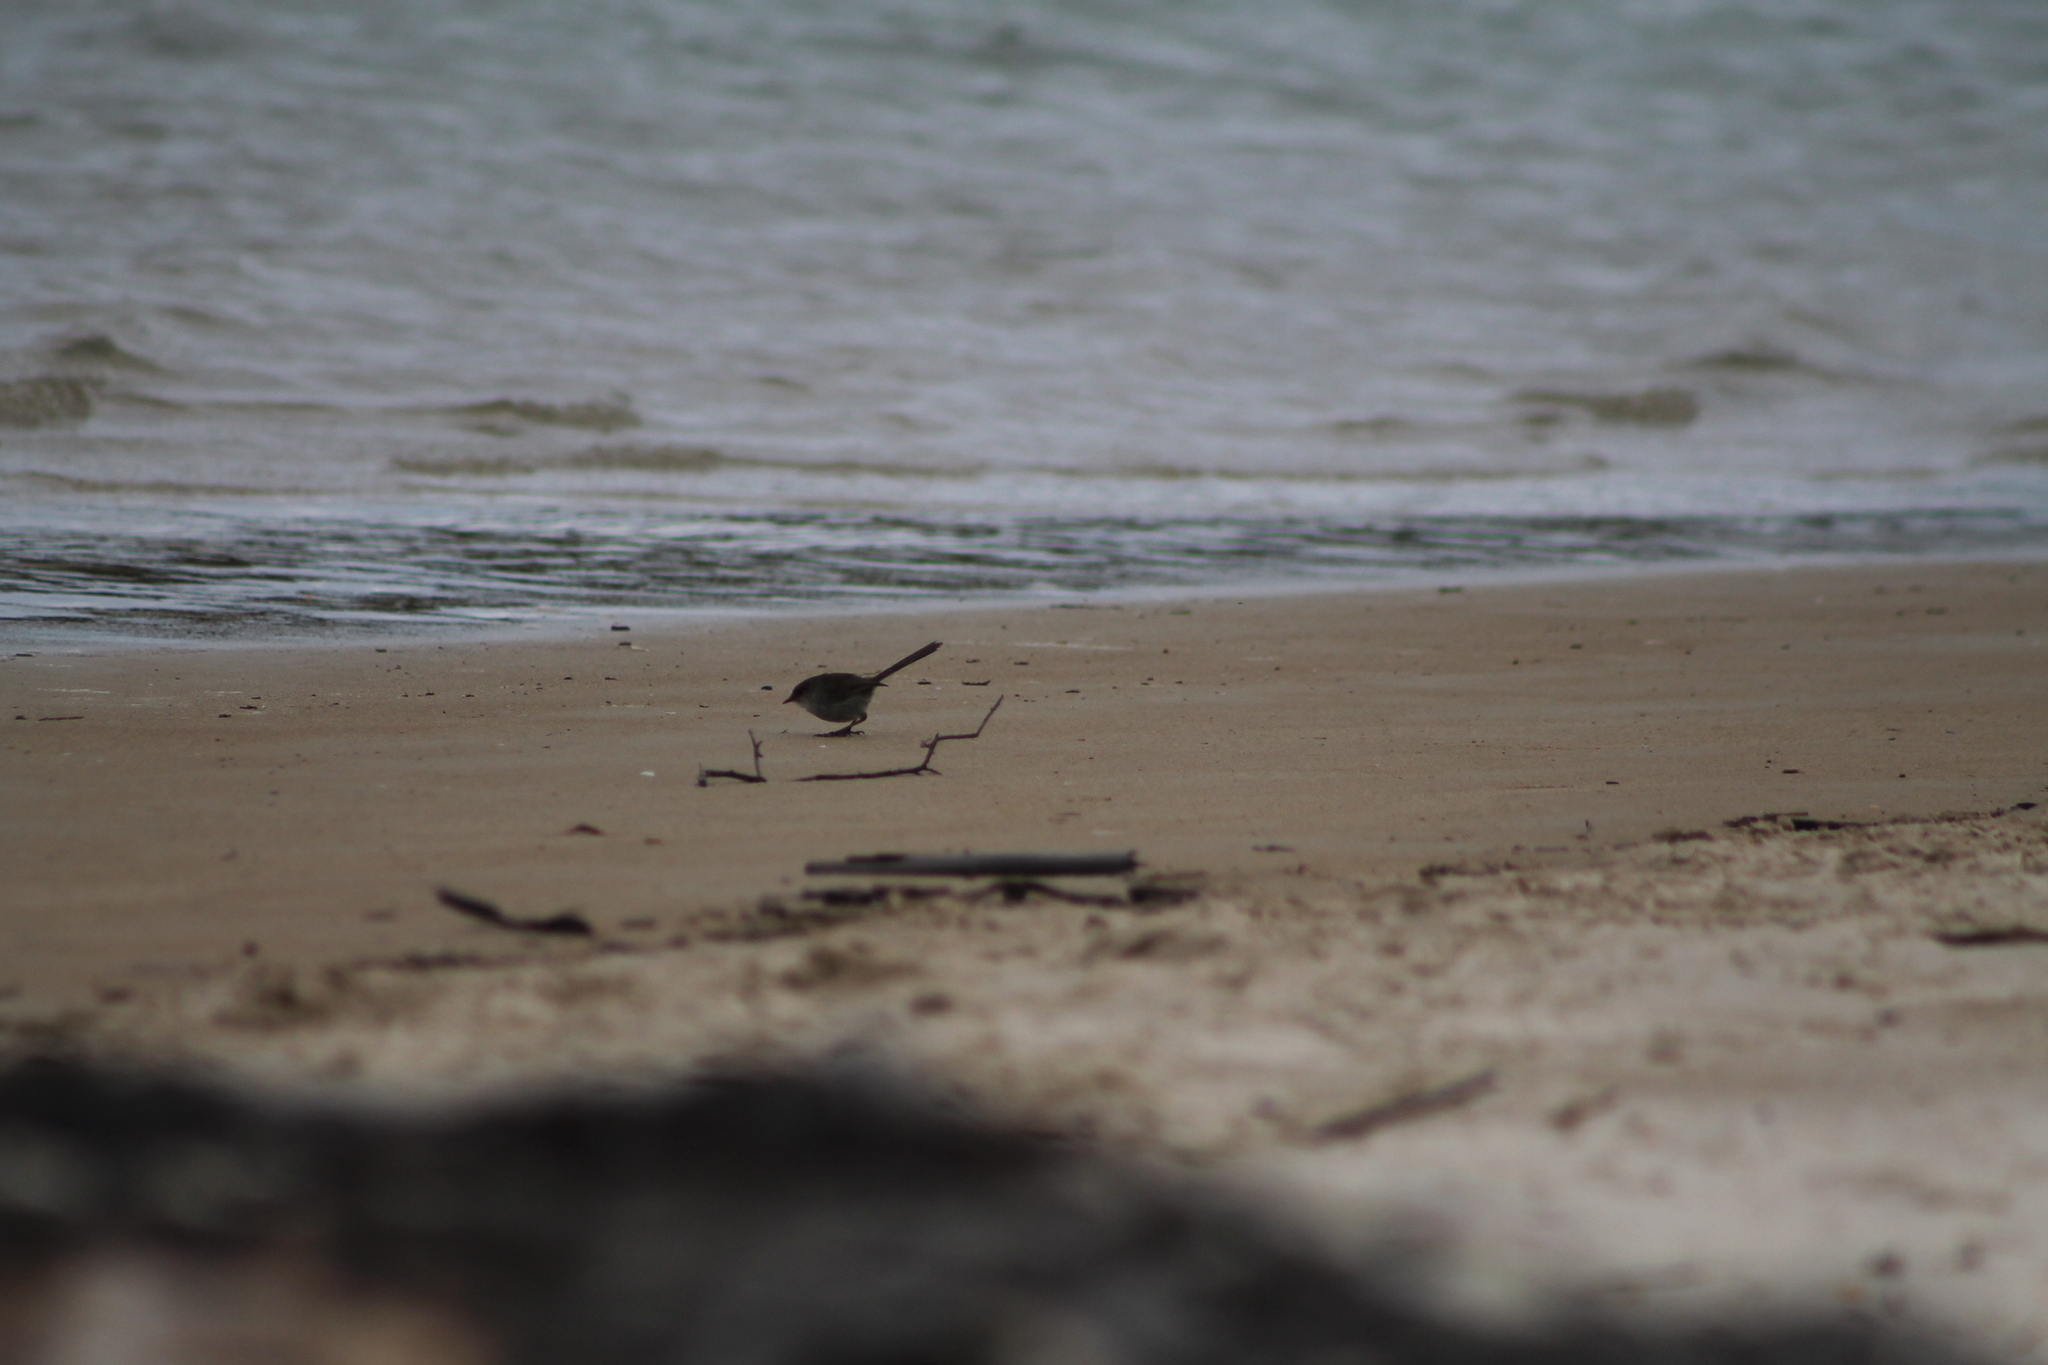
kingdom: Animalia
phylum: Chordata
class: Aves
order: Passeriformes
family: Maluridae
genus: Malurus
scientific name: Malurus cyaneus
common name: Superb fairywren
